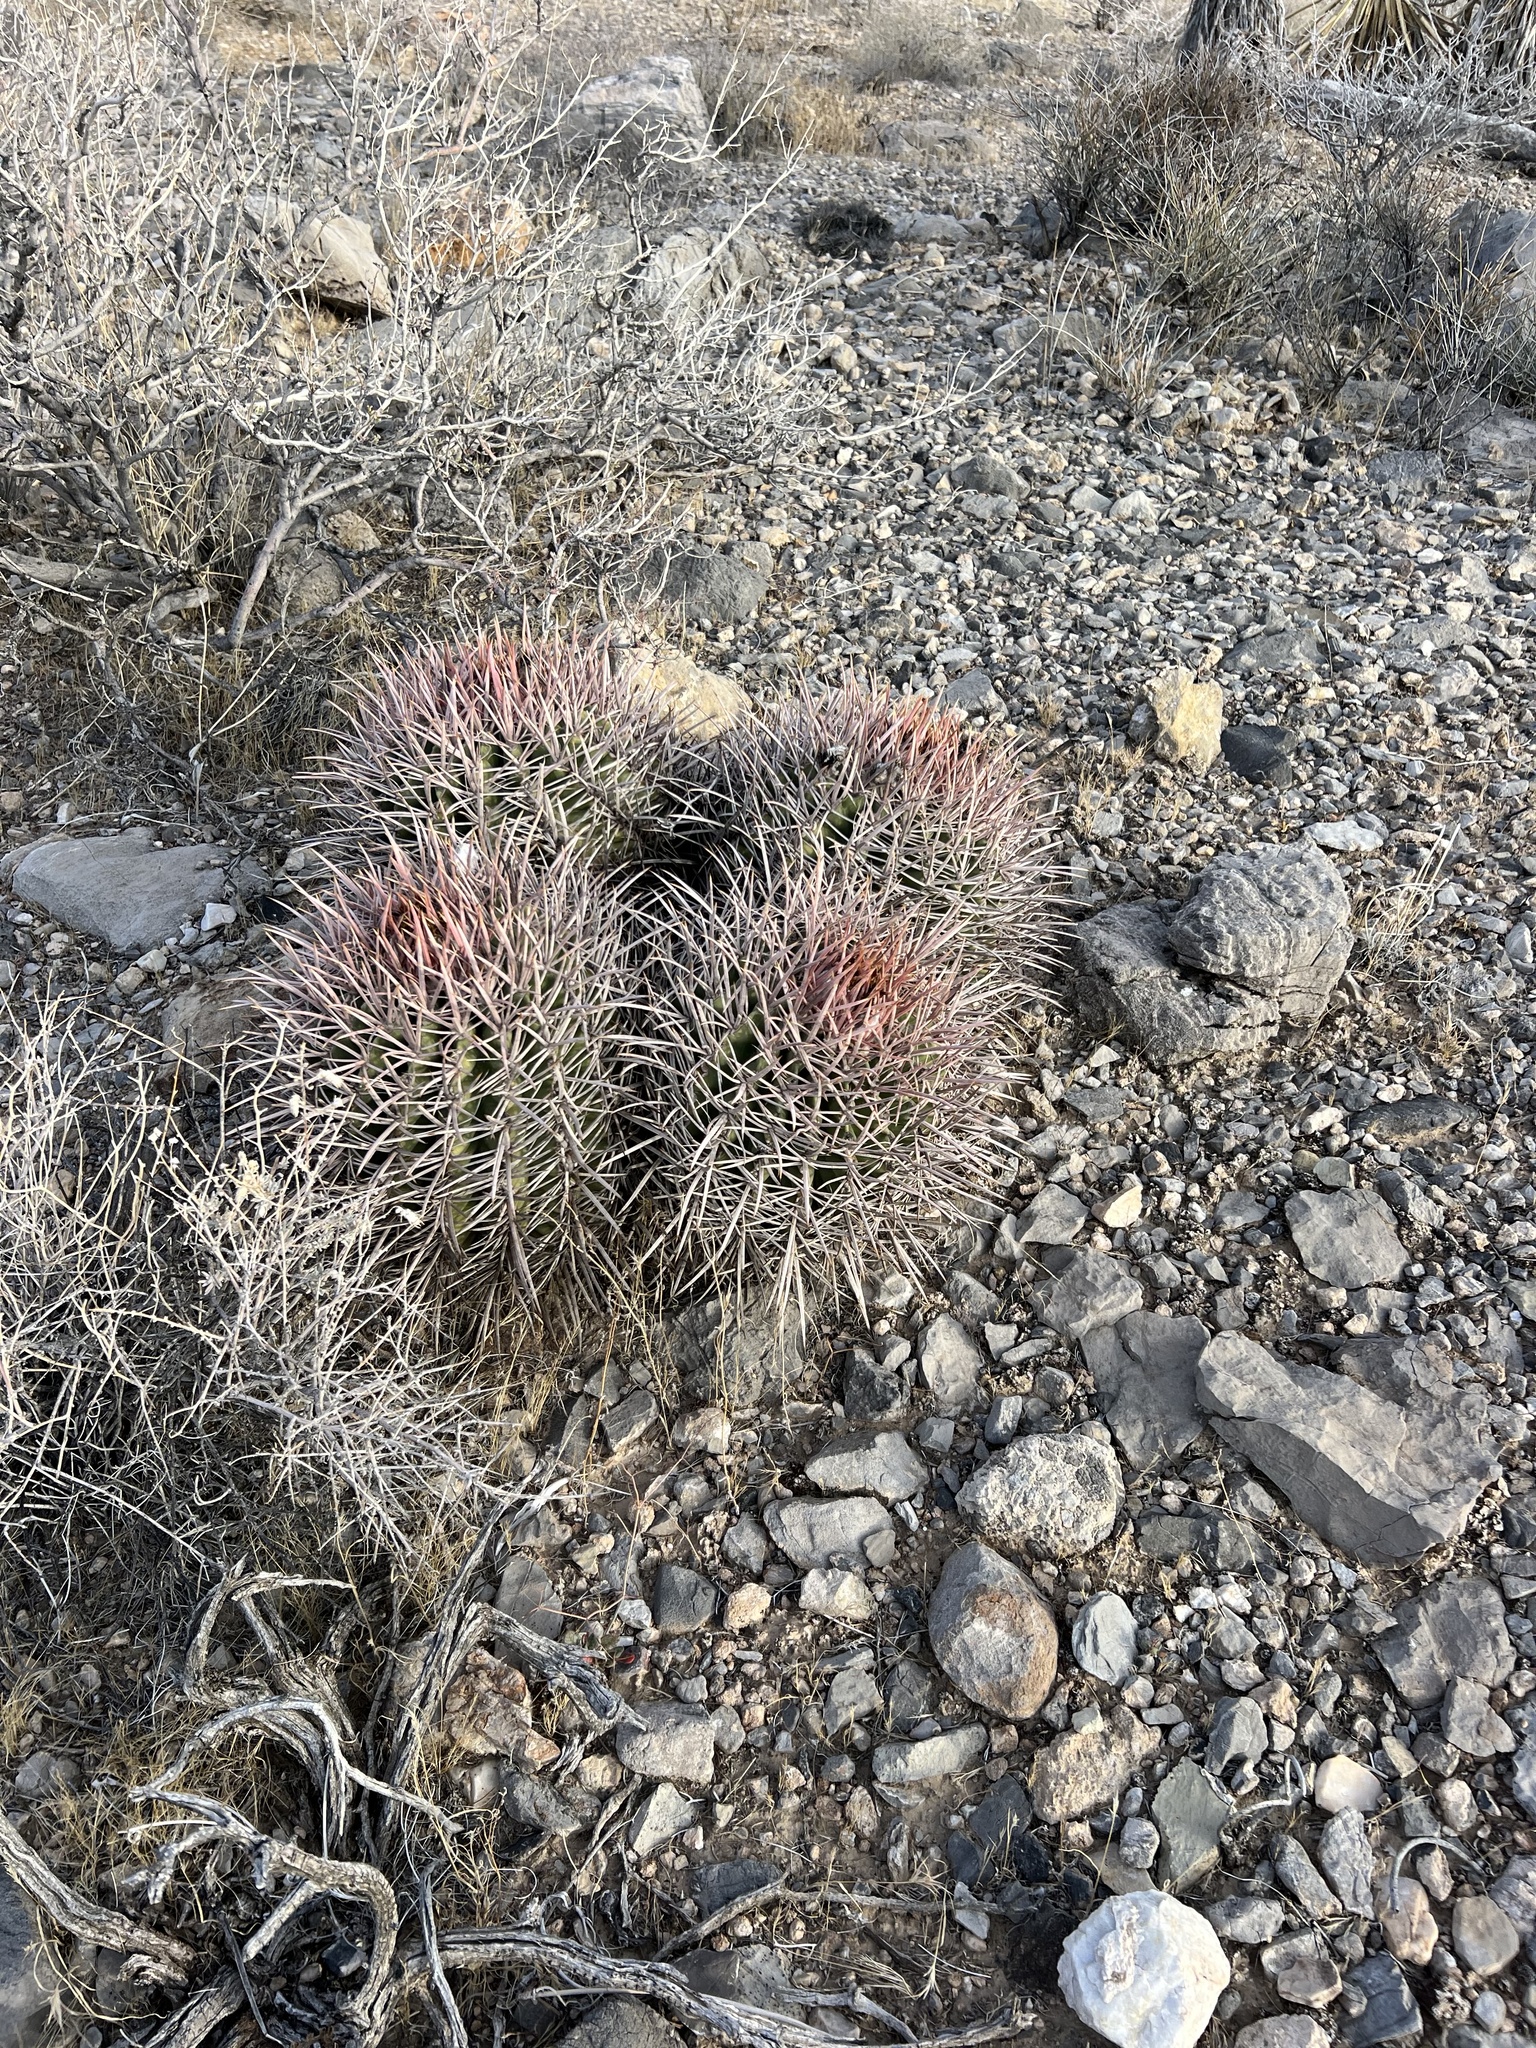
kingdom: Plantae
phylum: Tracheophyta
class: Magnoliopsida
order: Caryophyllales
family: Cactaceae
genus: Echinocactus
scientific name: Echinocactus polycephalus
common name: Cottontop cactus
